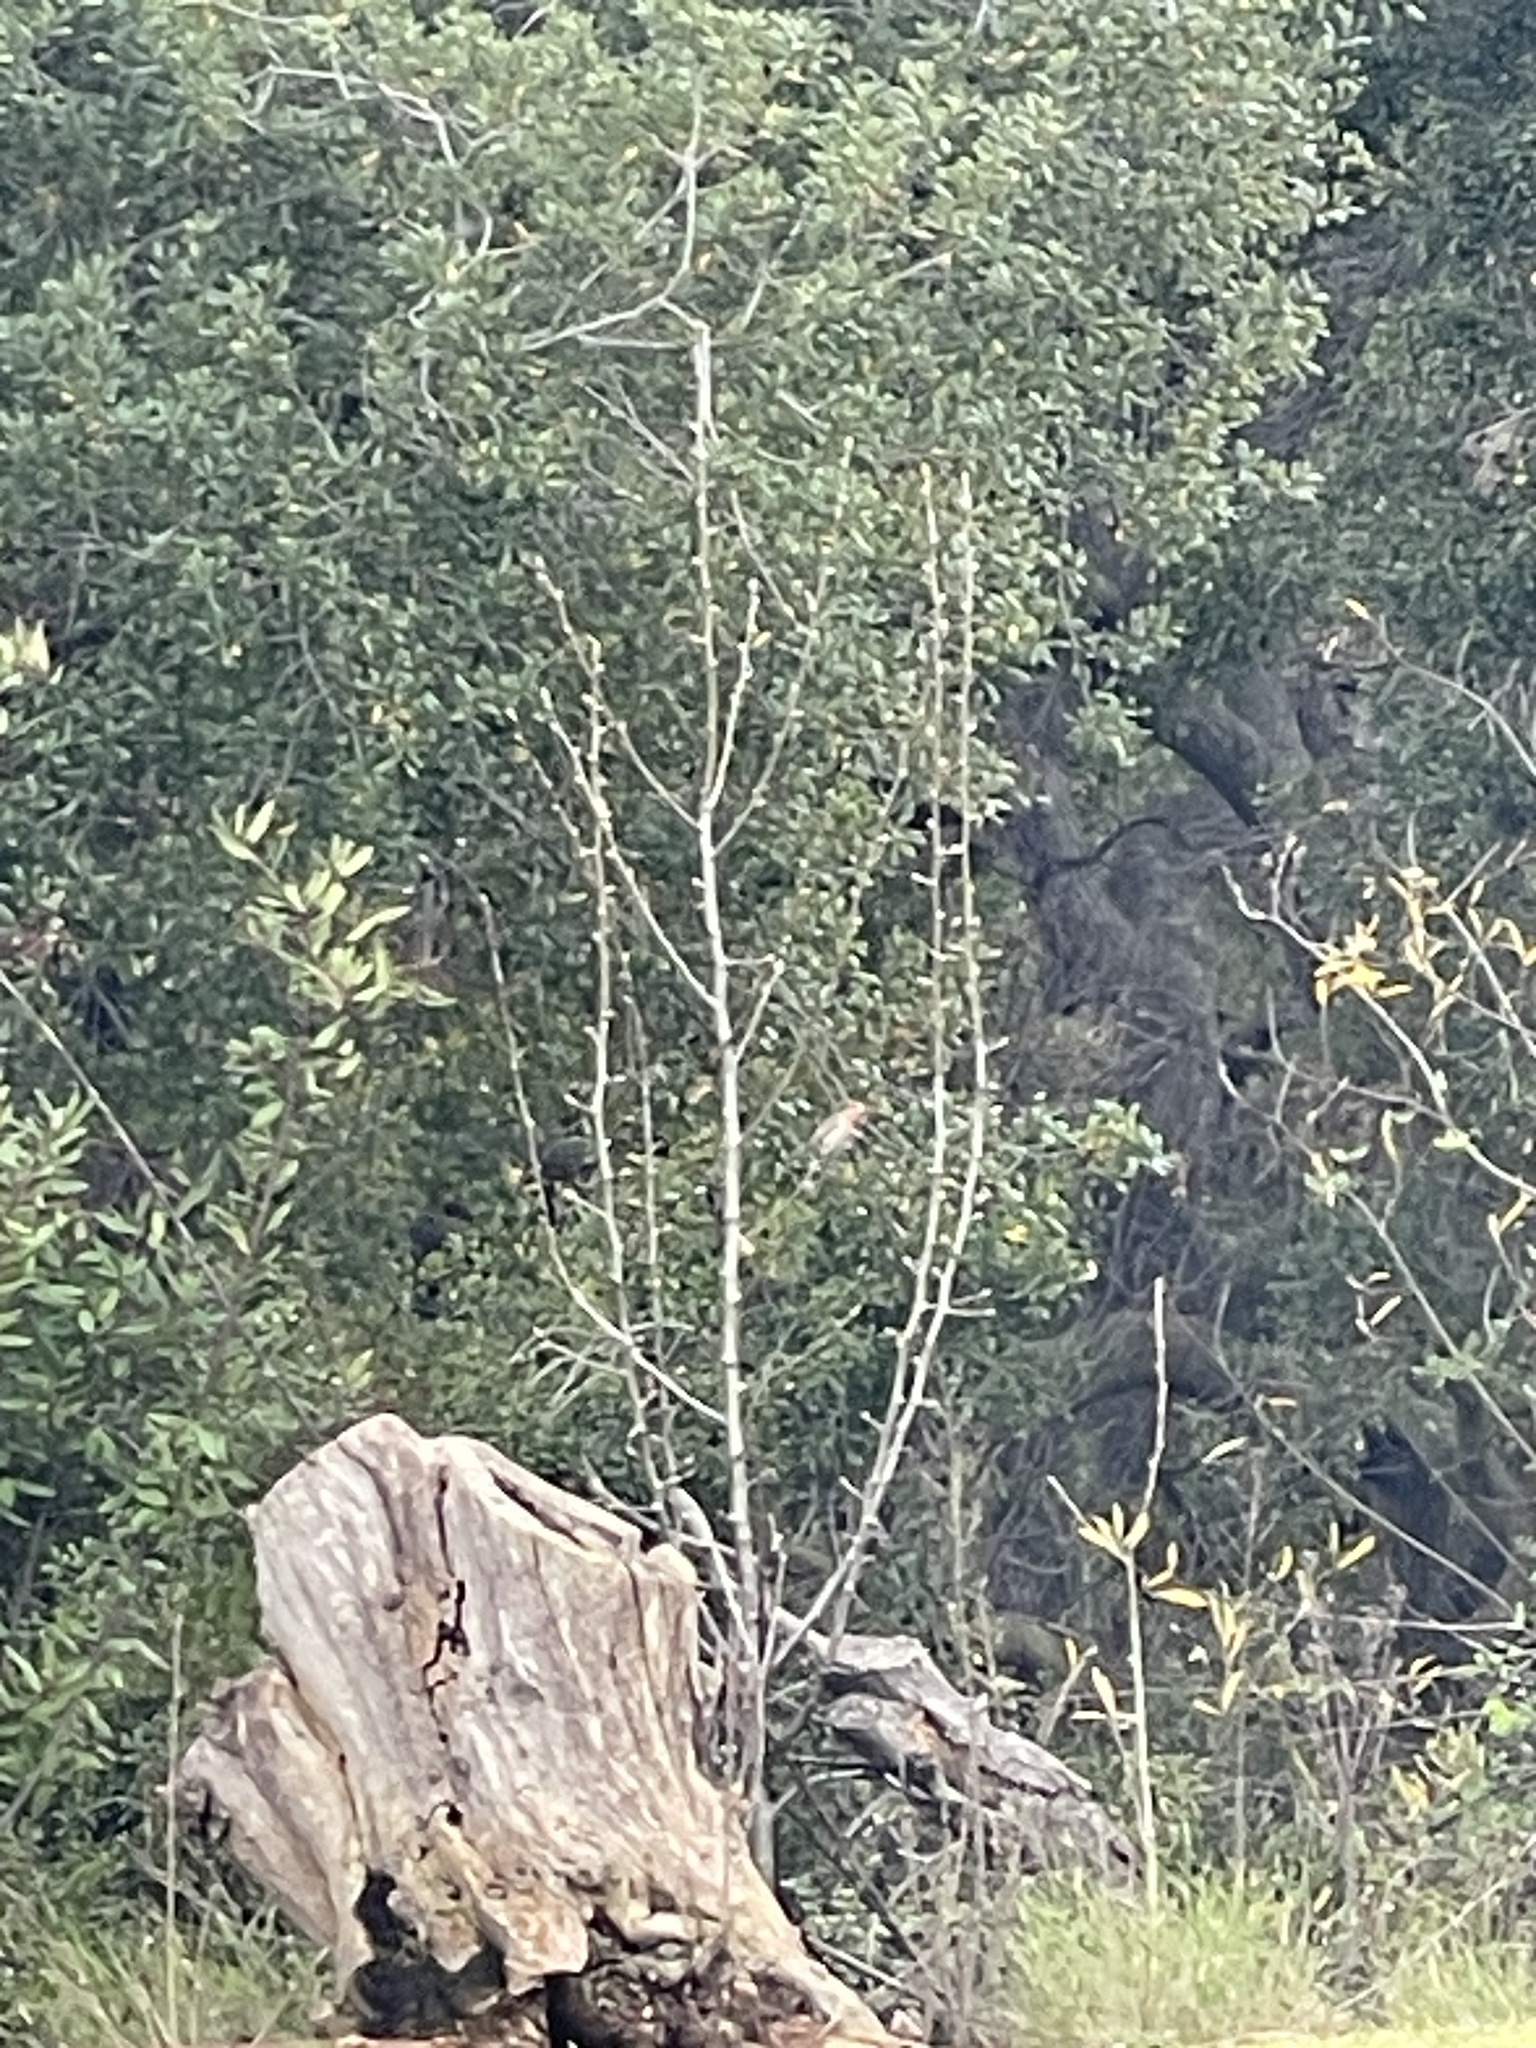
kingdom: Animalia
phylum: Chordata
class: Aves
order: Passeriformes
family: Fringillidae
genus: Haemorhous
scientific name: Haemorhous mexicanus
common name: House finch
